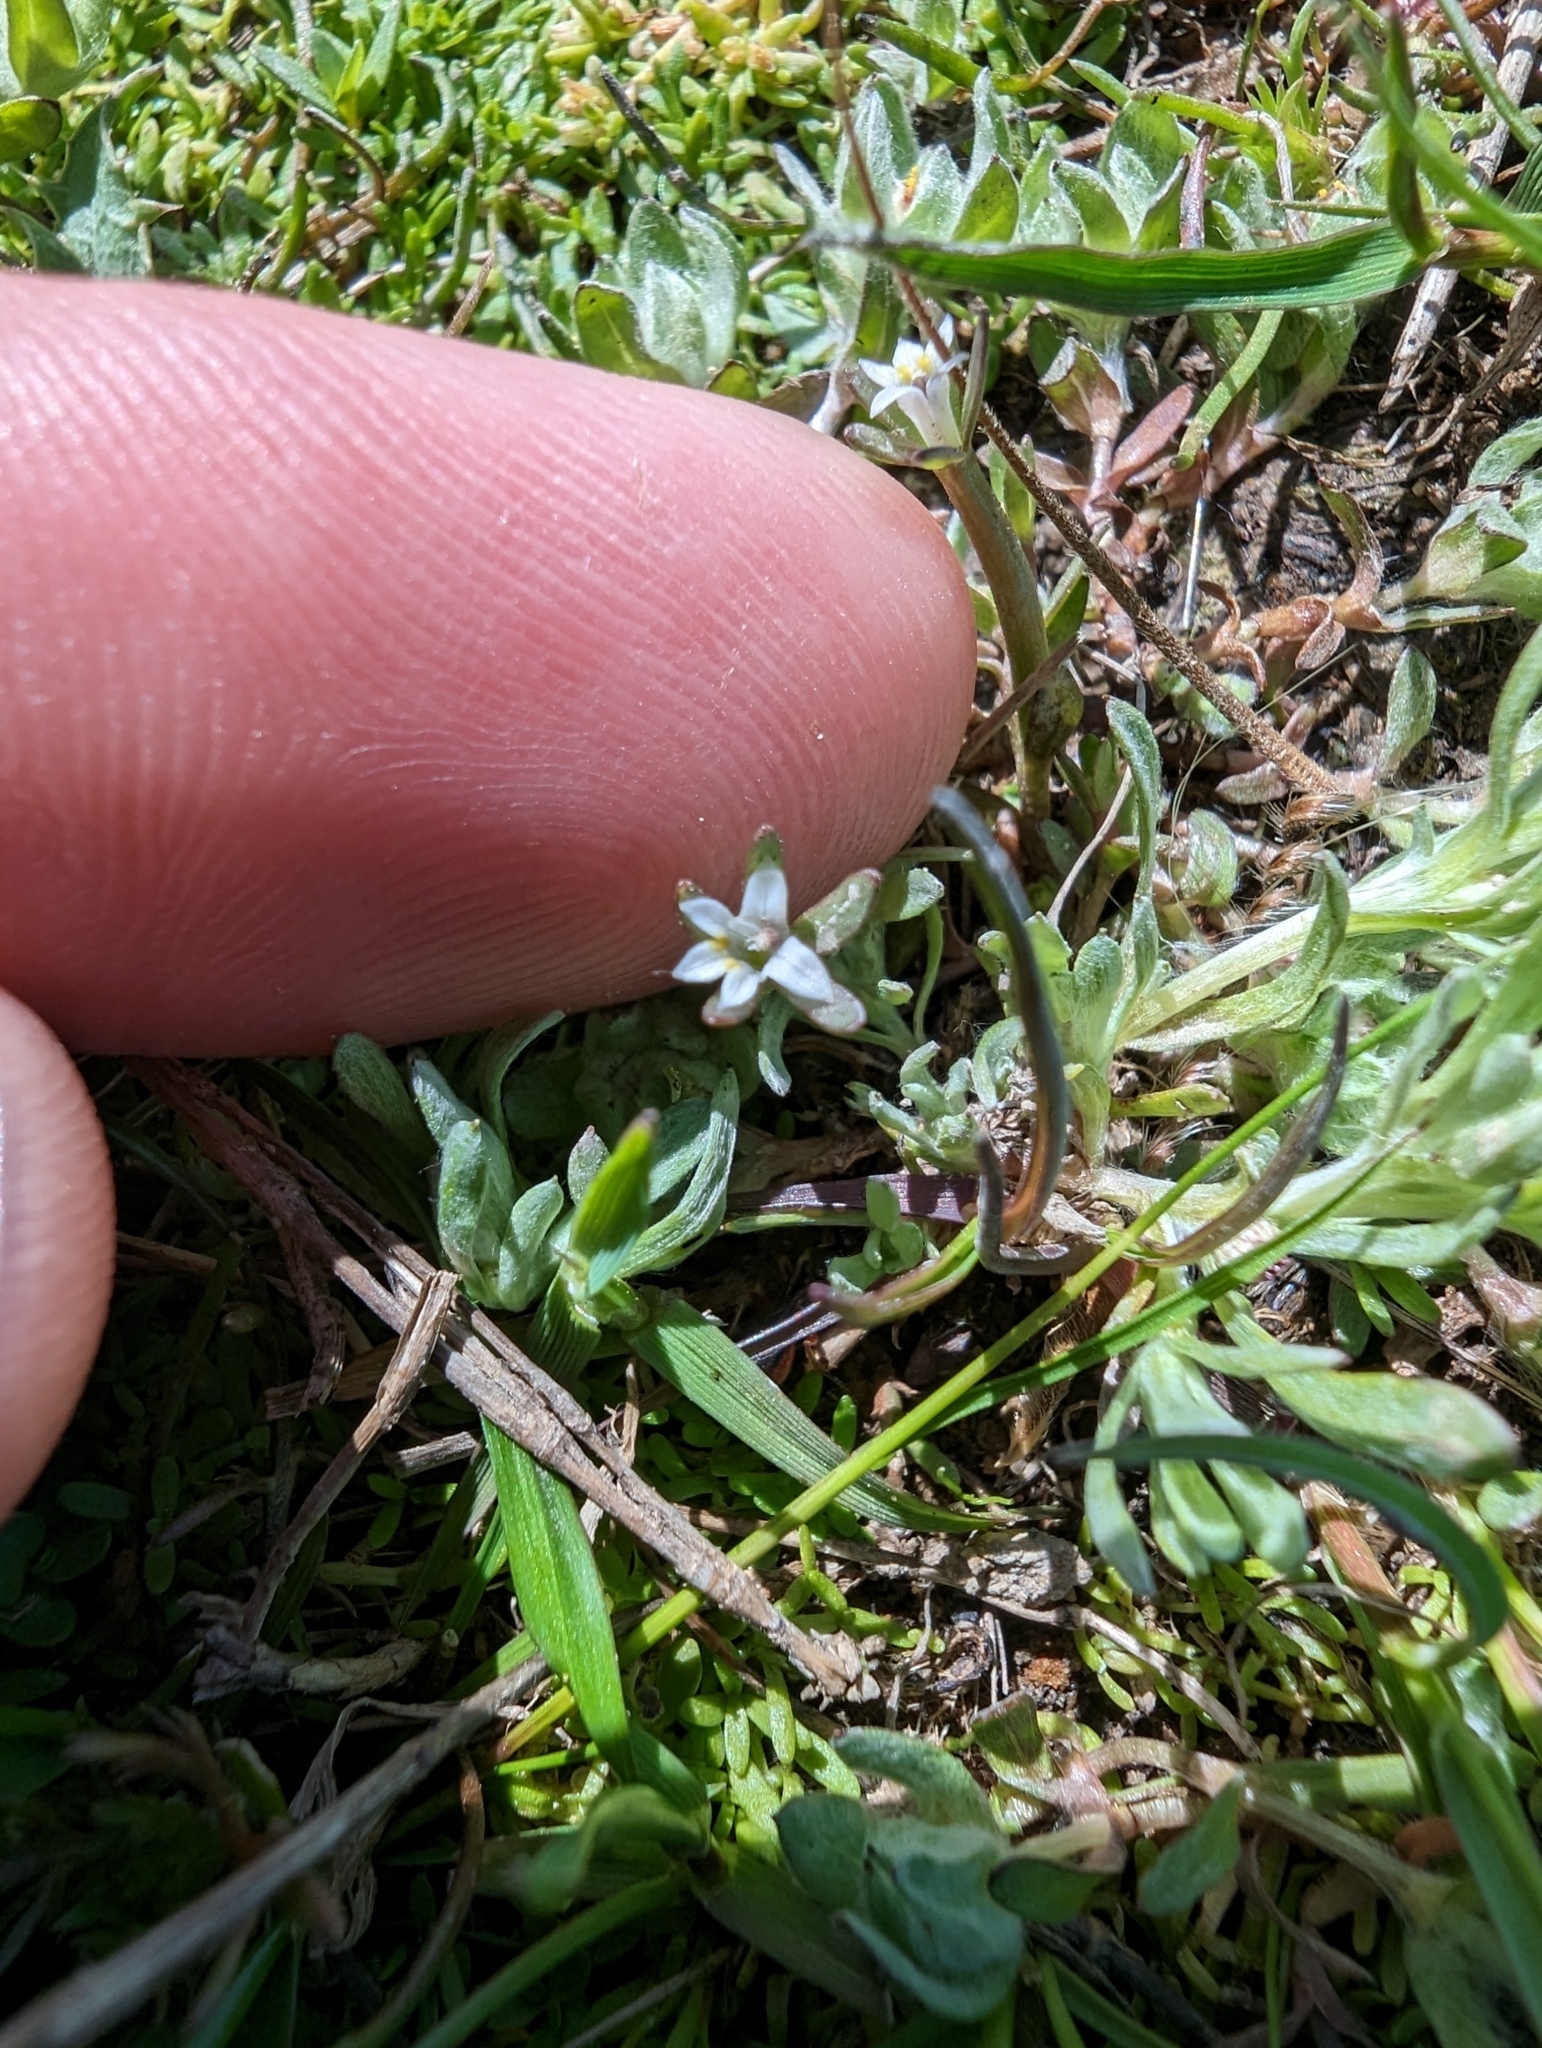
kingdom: Plantae
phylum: Tracheophyta
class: Magnoliopsida
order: Asterales
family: Campanulaceae
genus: Downingia
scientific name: Downingia pusilla
